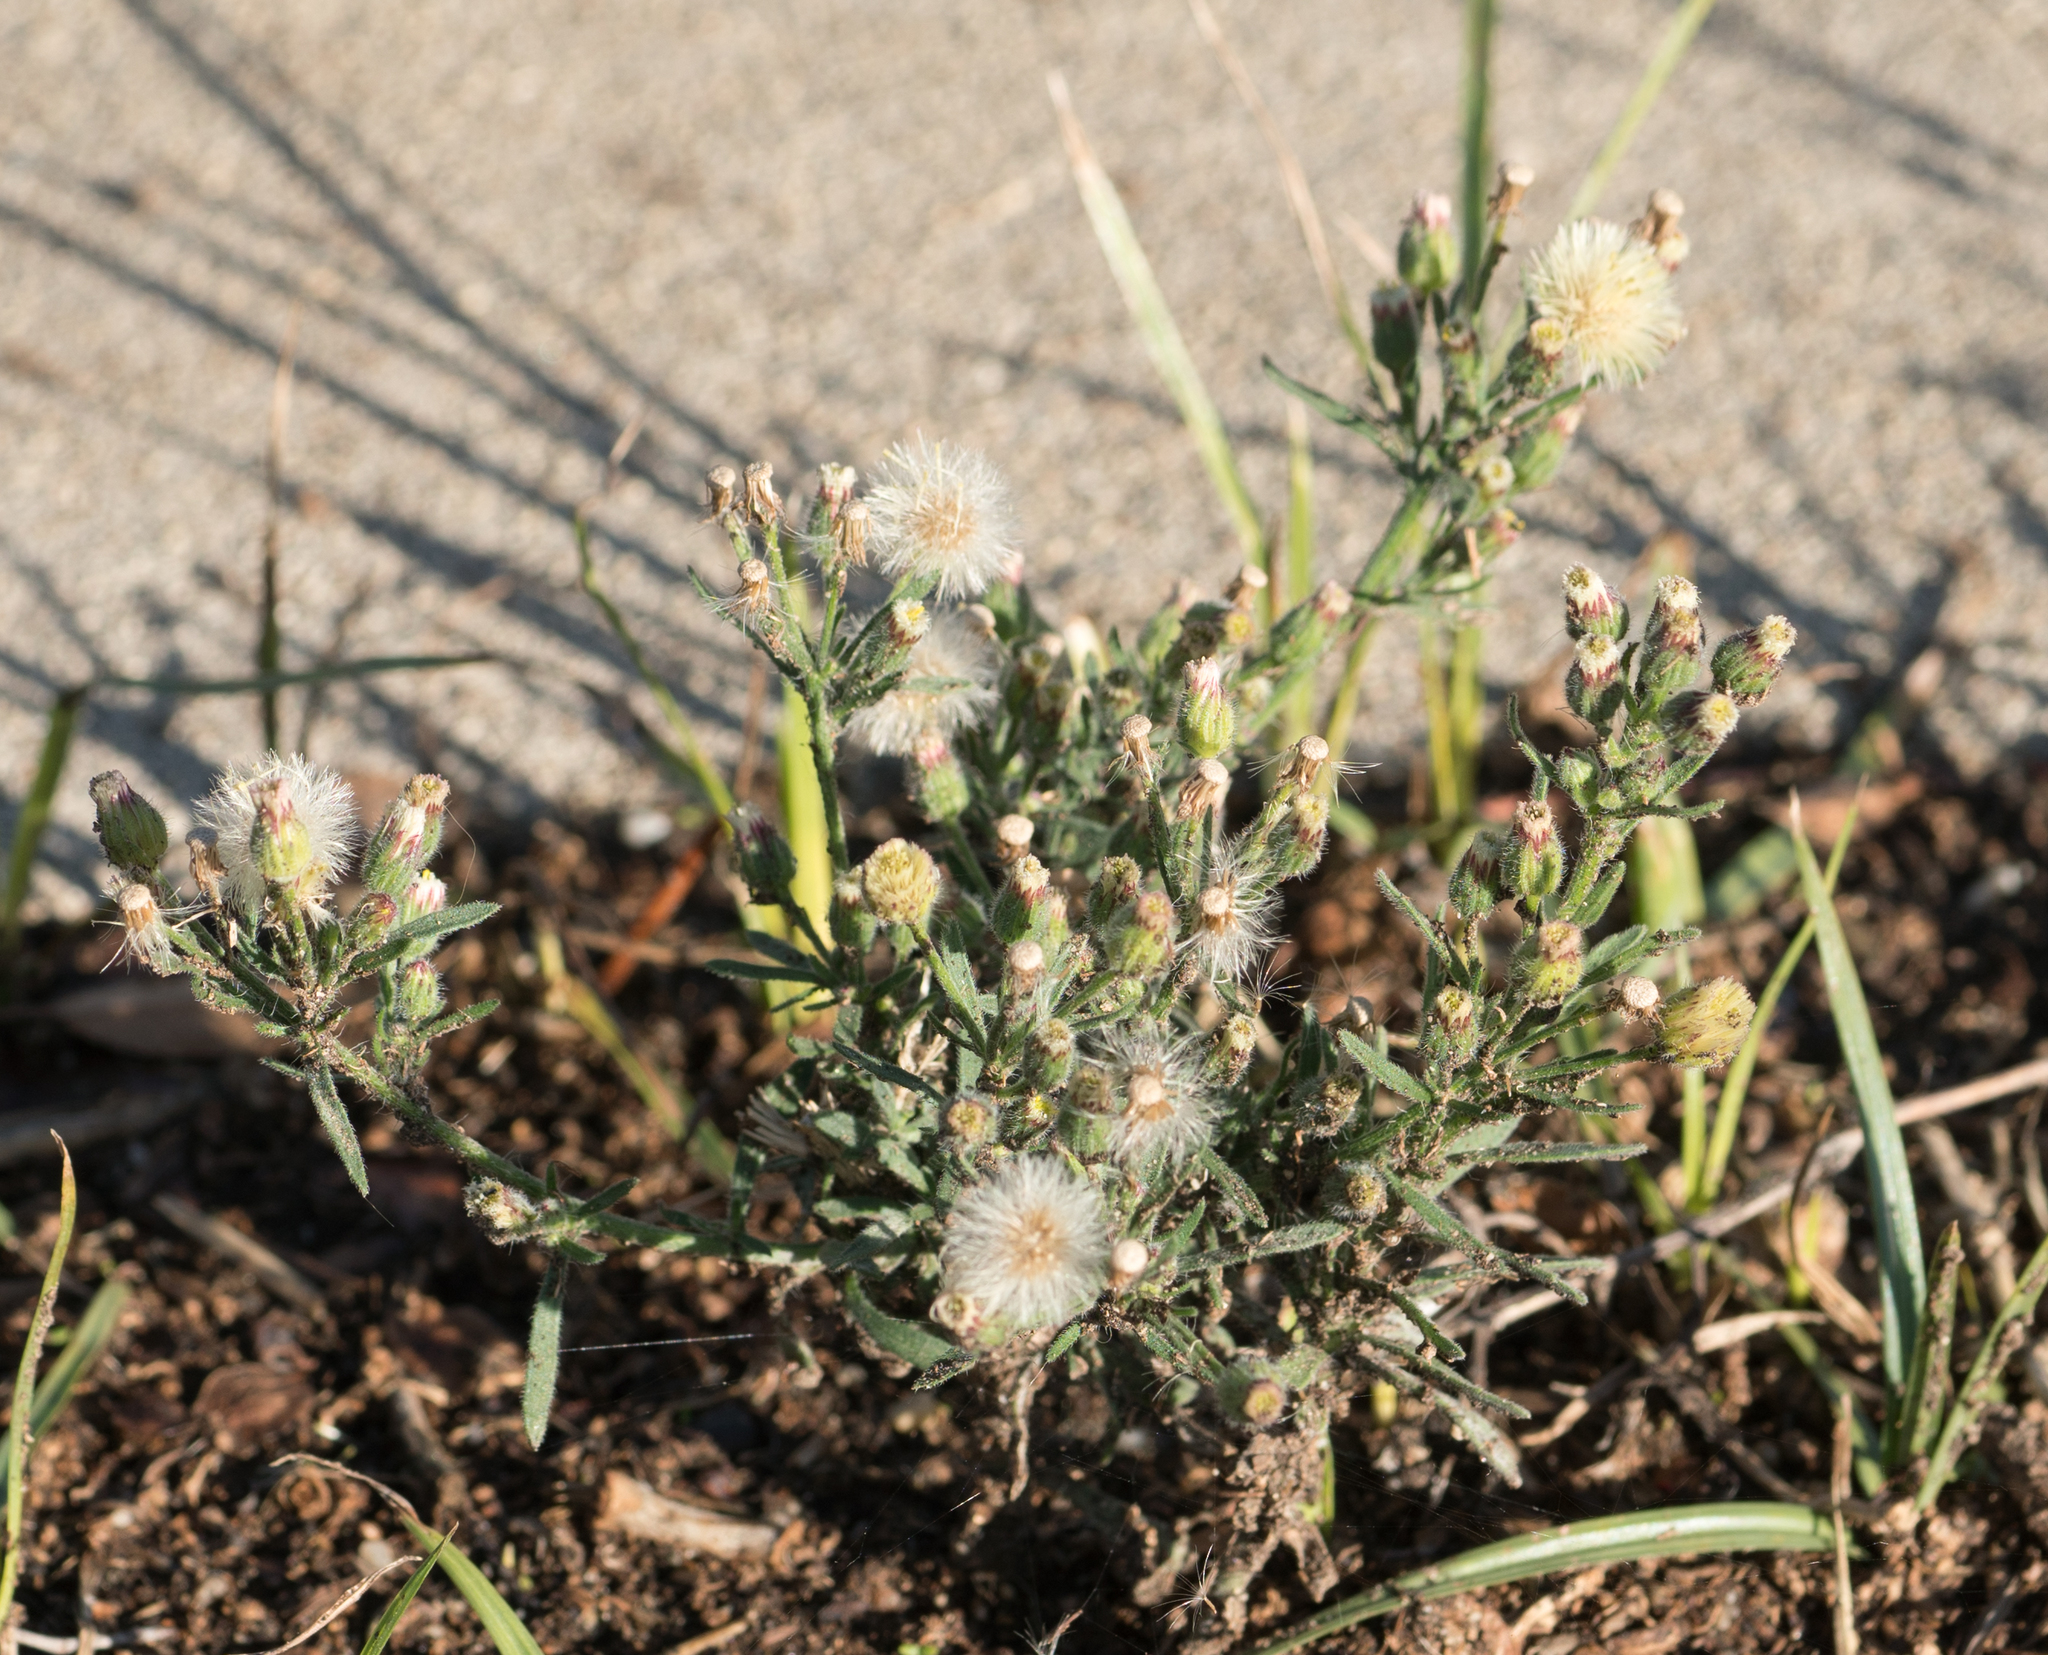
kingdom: Plantae
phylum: Tracheophyta
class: Magnoliopsida
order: Asterales
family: Asteraceae
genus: Erigeron
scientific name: Erigeron bonariensis
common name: Argentine fleabane
